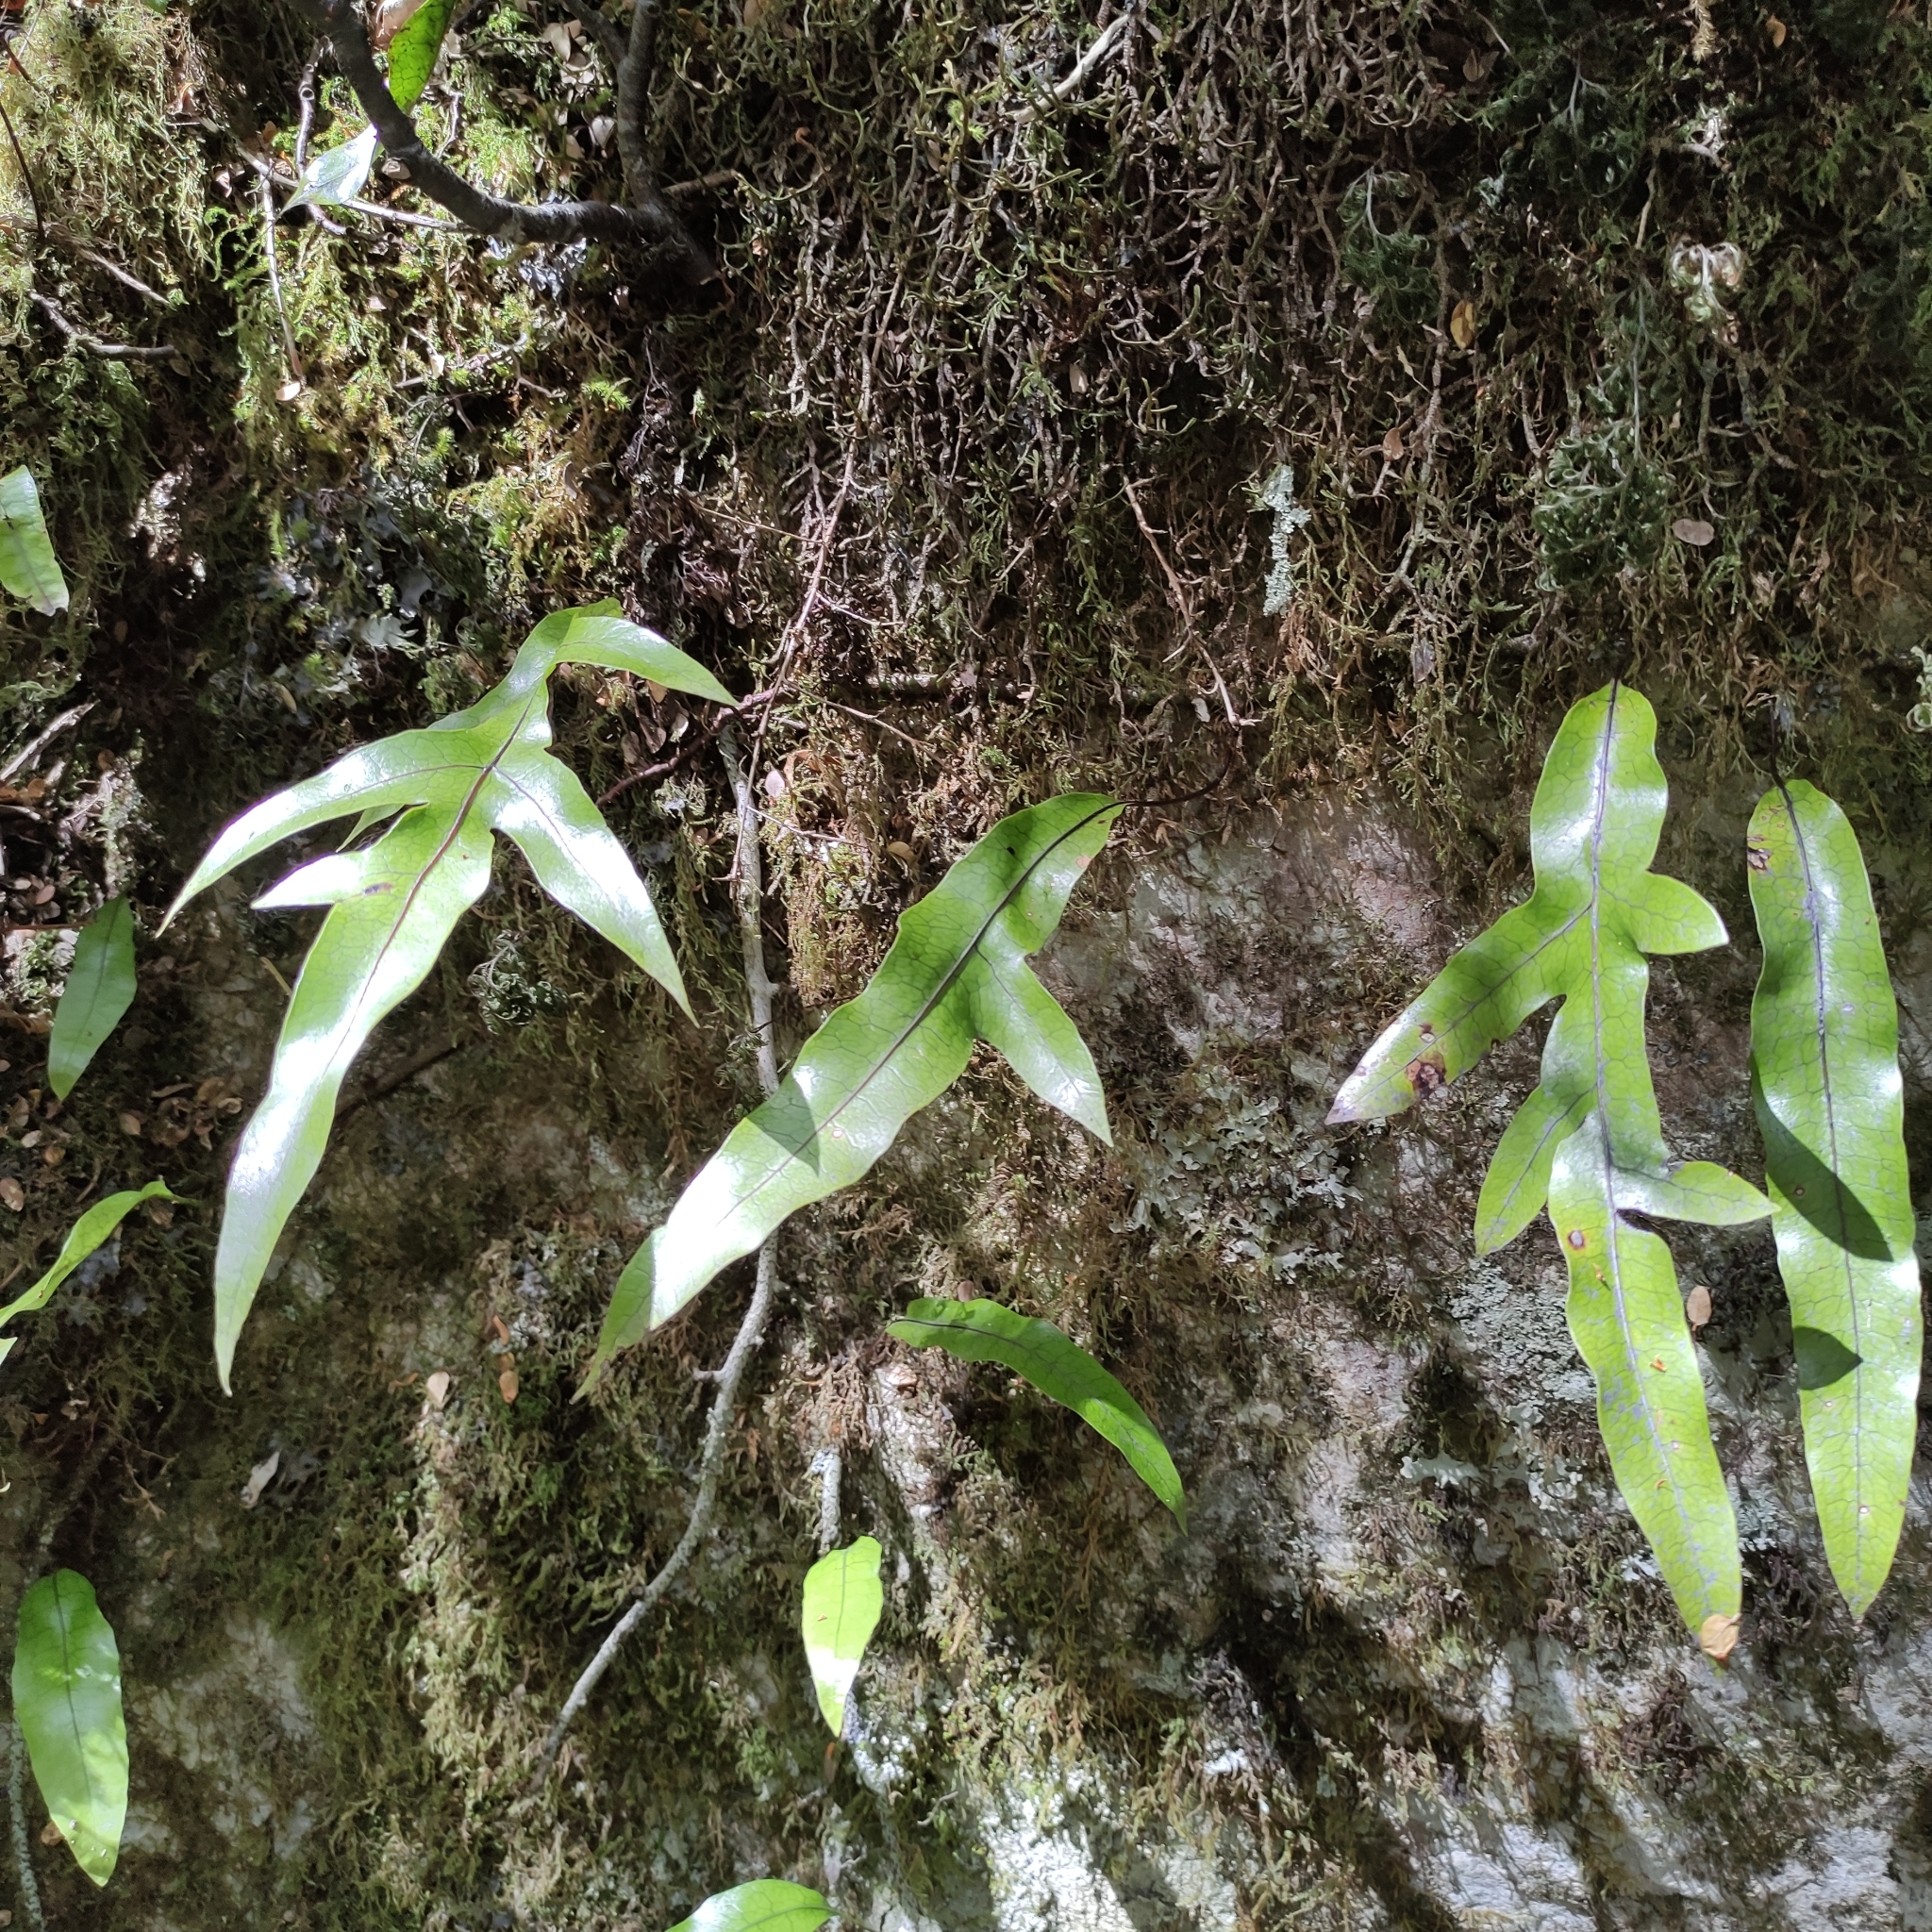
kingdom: Plantae
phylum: Tracheophyta
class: Polypodiopsida
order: Polypodiales
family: Polypodiaceae
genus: Lecanopteris
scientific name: Lecanopteris pustulata
